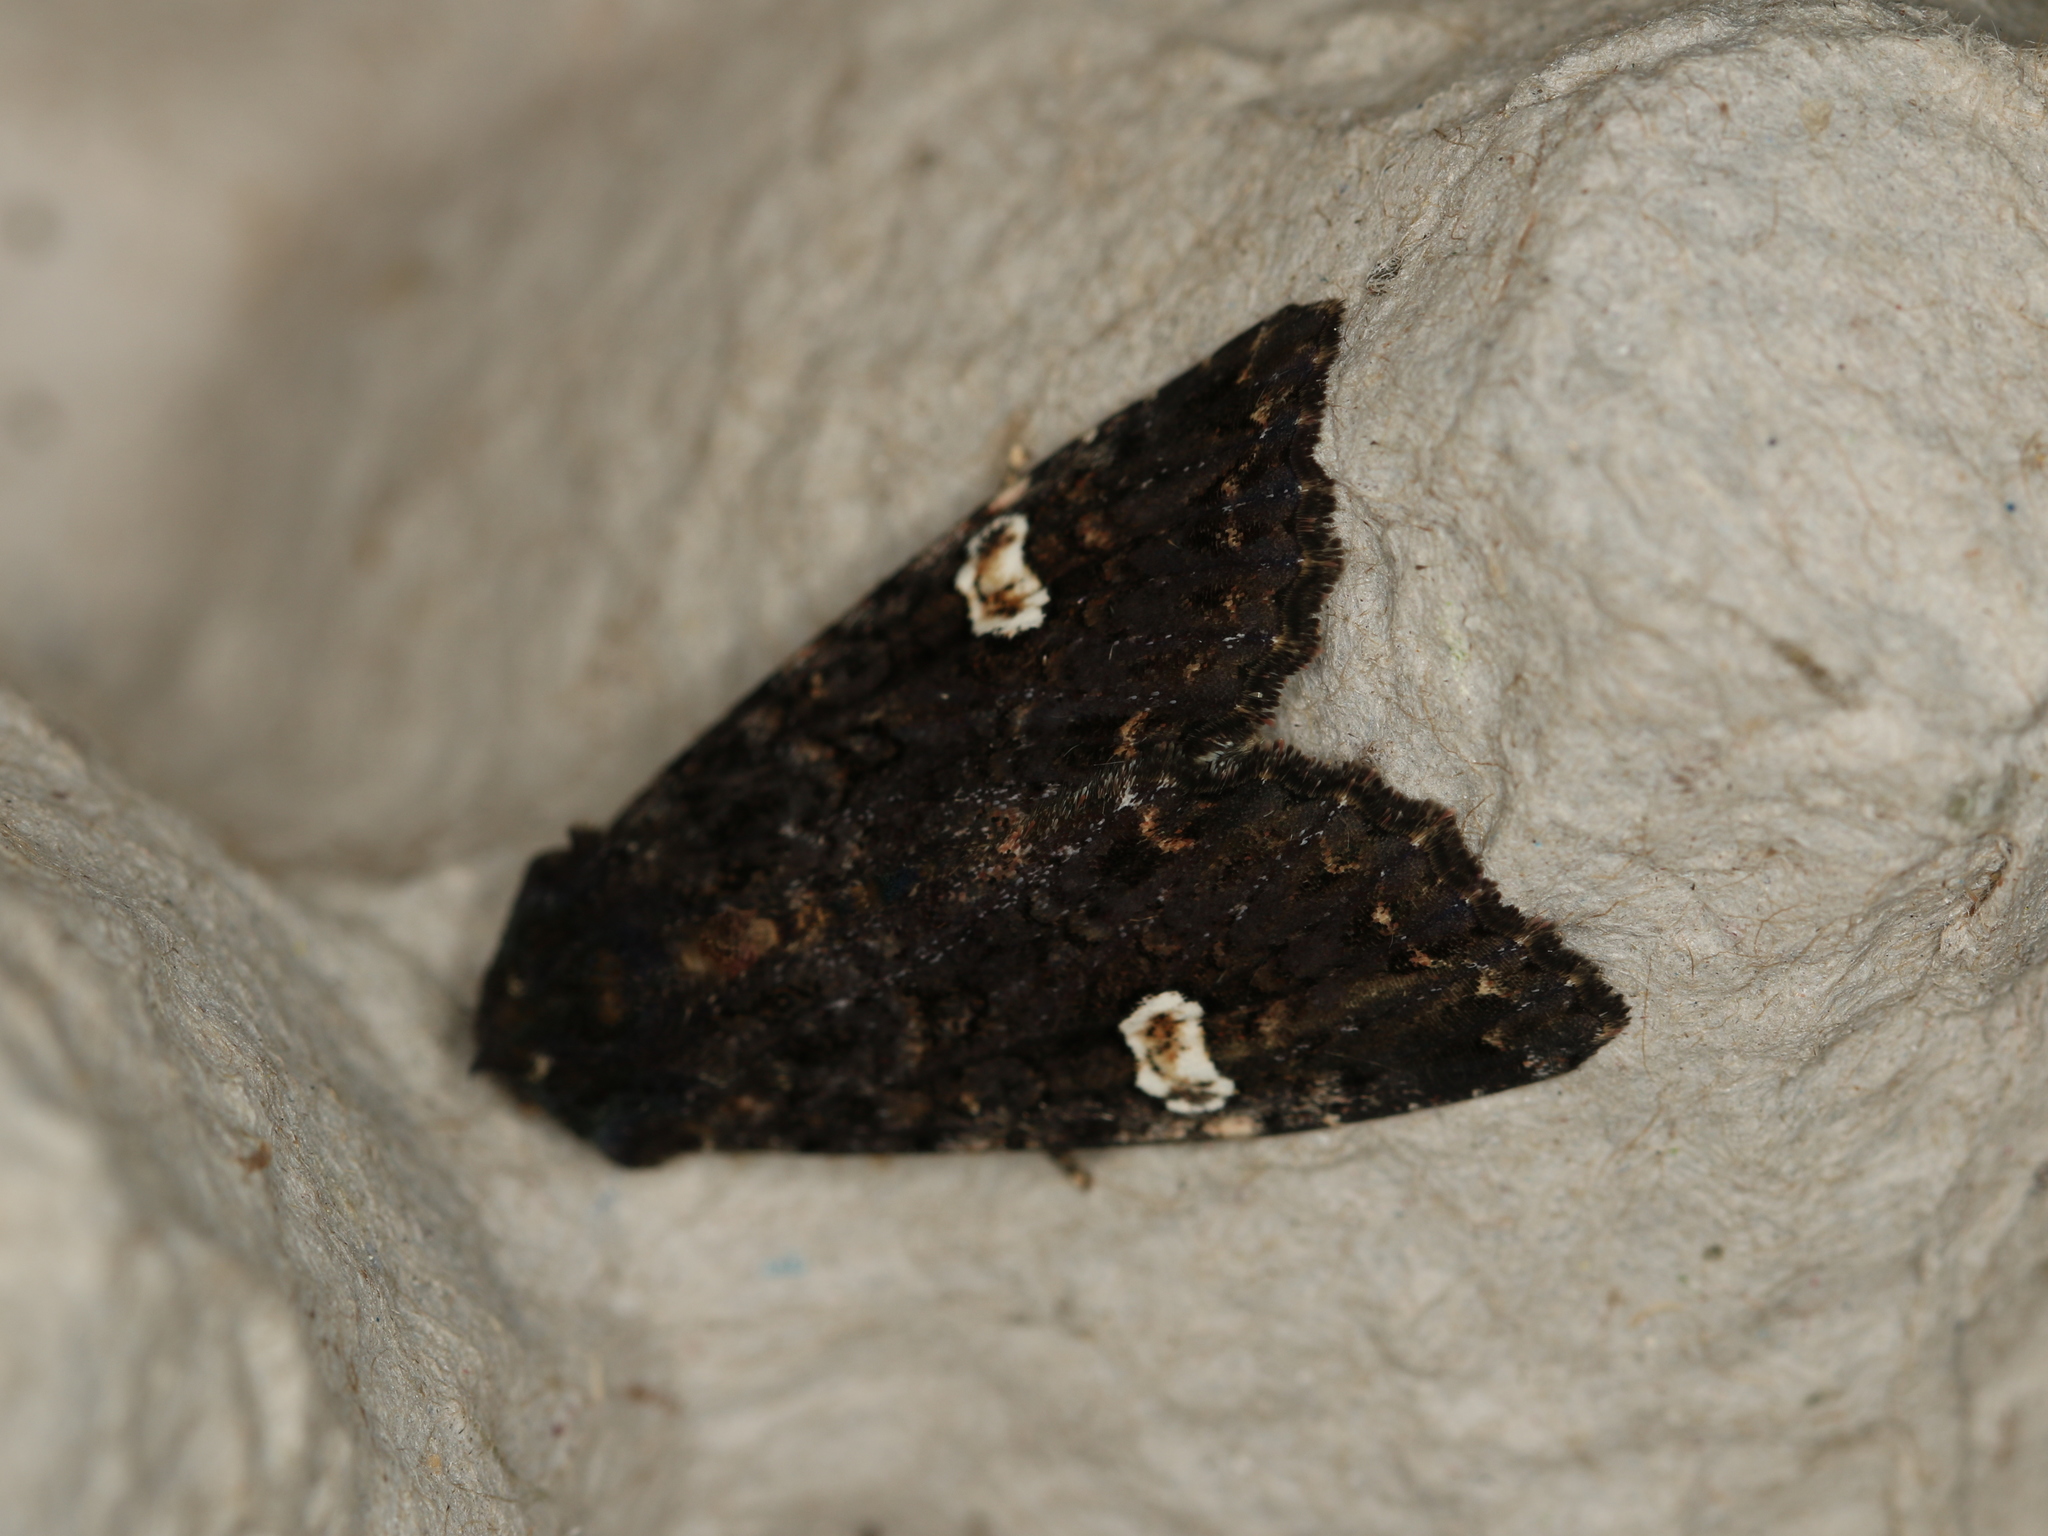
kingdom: Animalia
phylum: Arthropoda
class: Insecta
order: Lepidoptera
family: Noctuidae
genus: Melanchra
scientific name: Melanchra persicariae
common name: Dot moth
